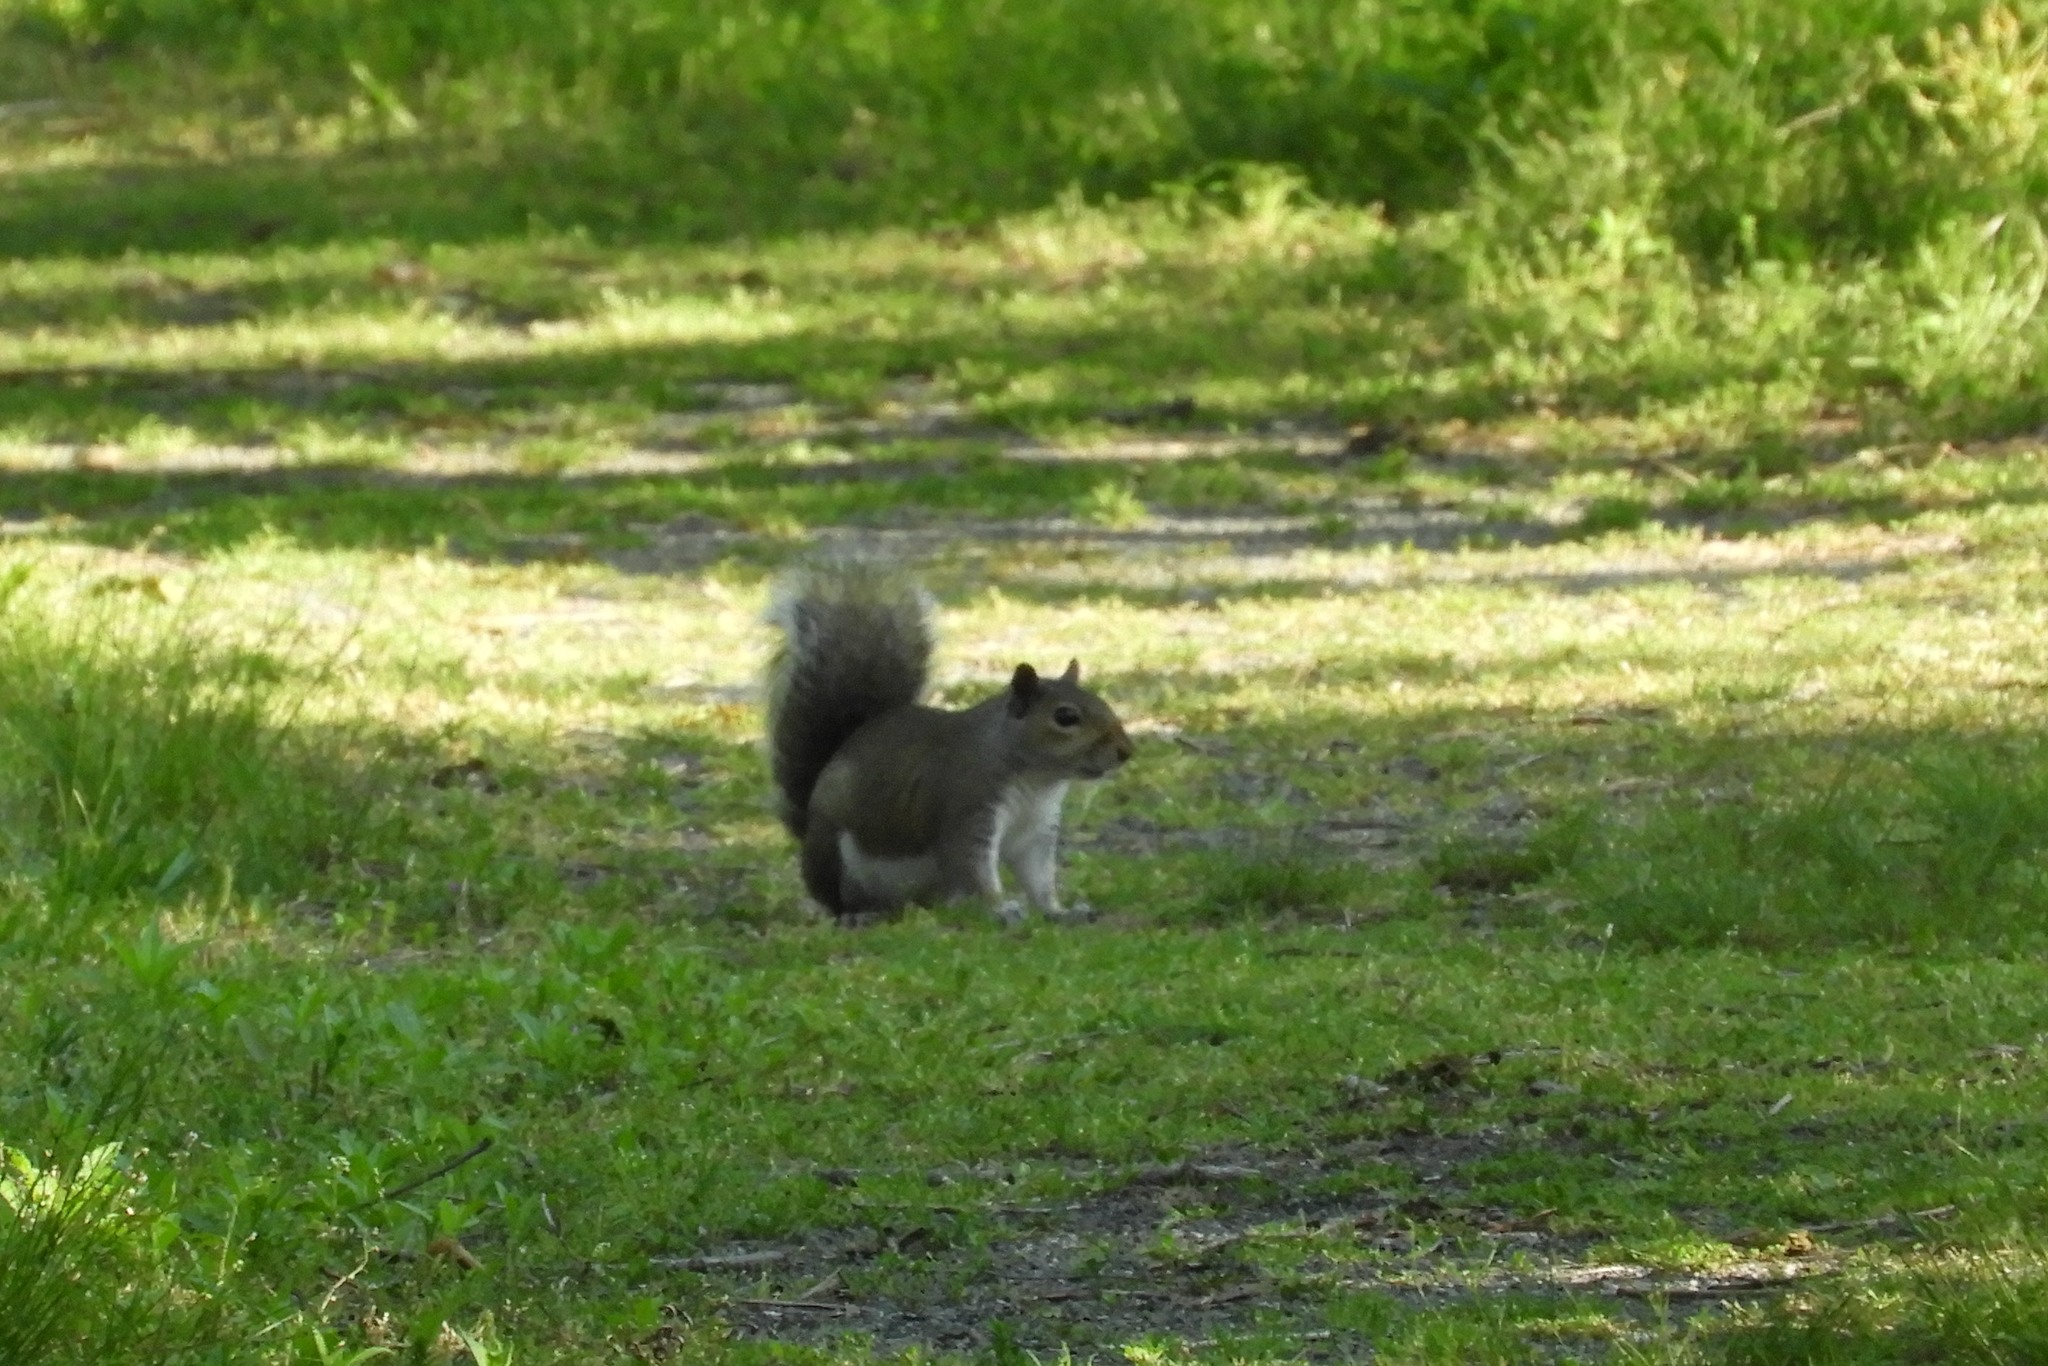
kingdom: Animalia
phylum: Chordata
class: Mammalia
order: Rodentia
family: Sciuridae
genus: Sciurus
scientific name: Sciurus carolinensis
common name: Eastern gray squirrel
